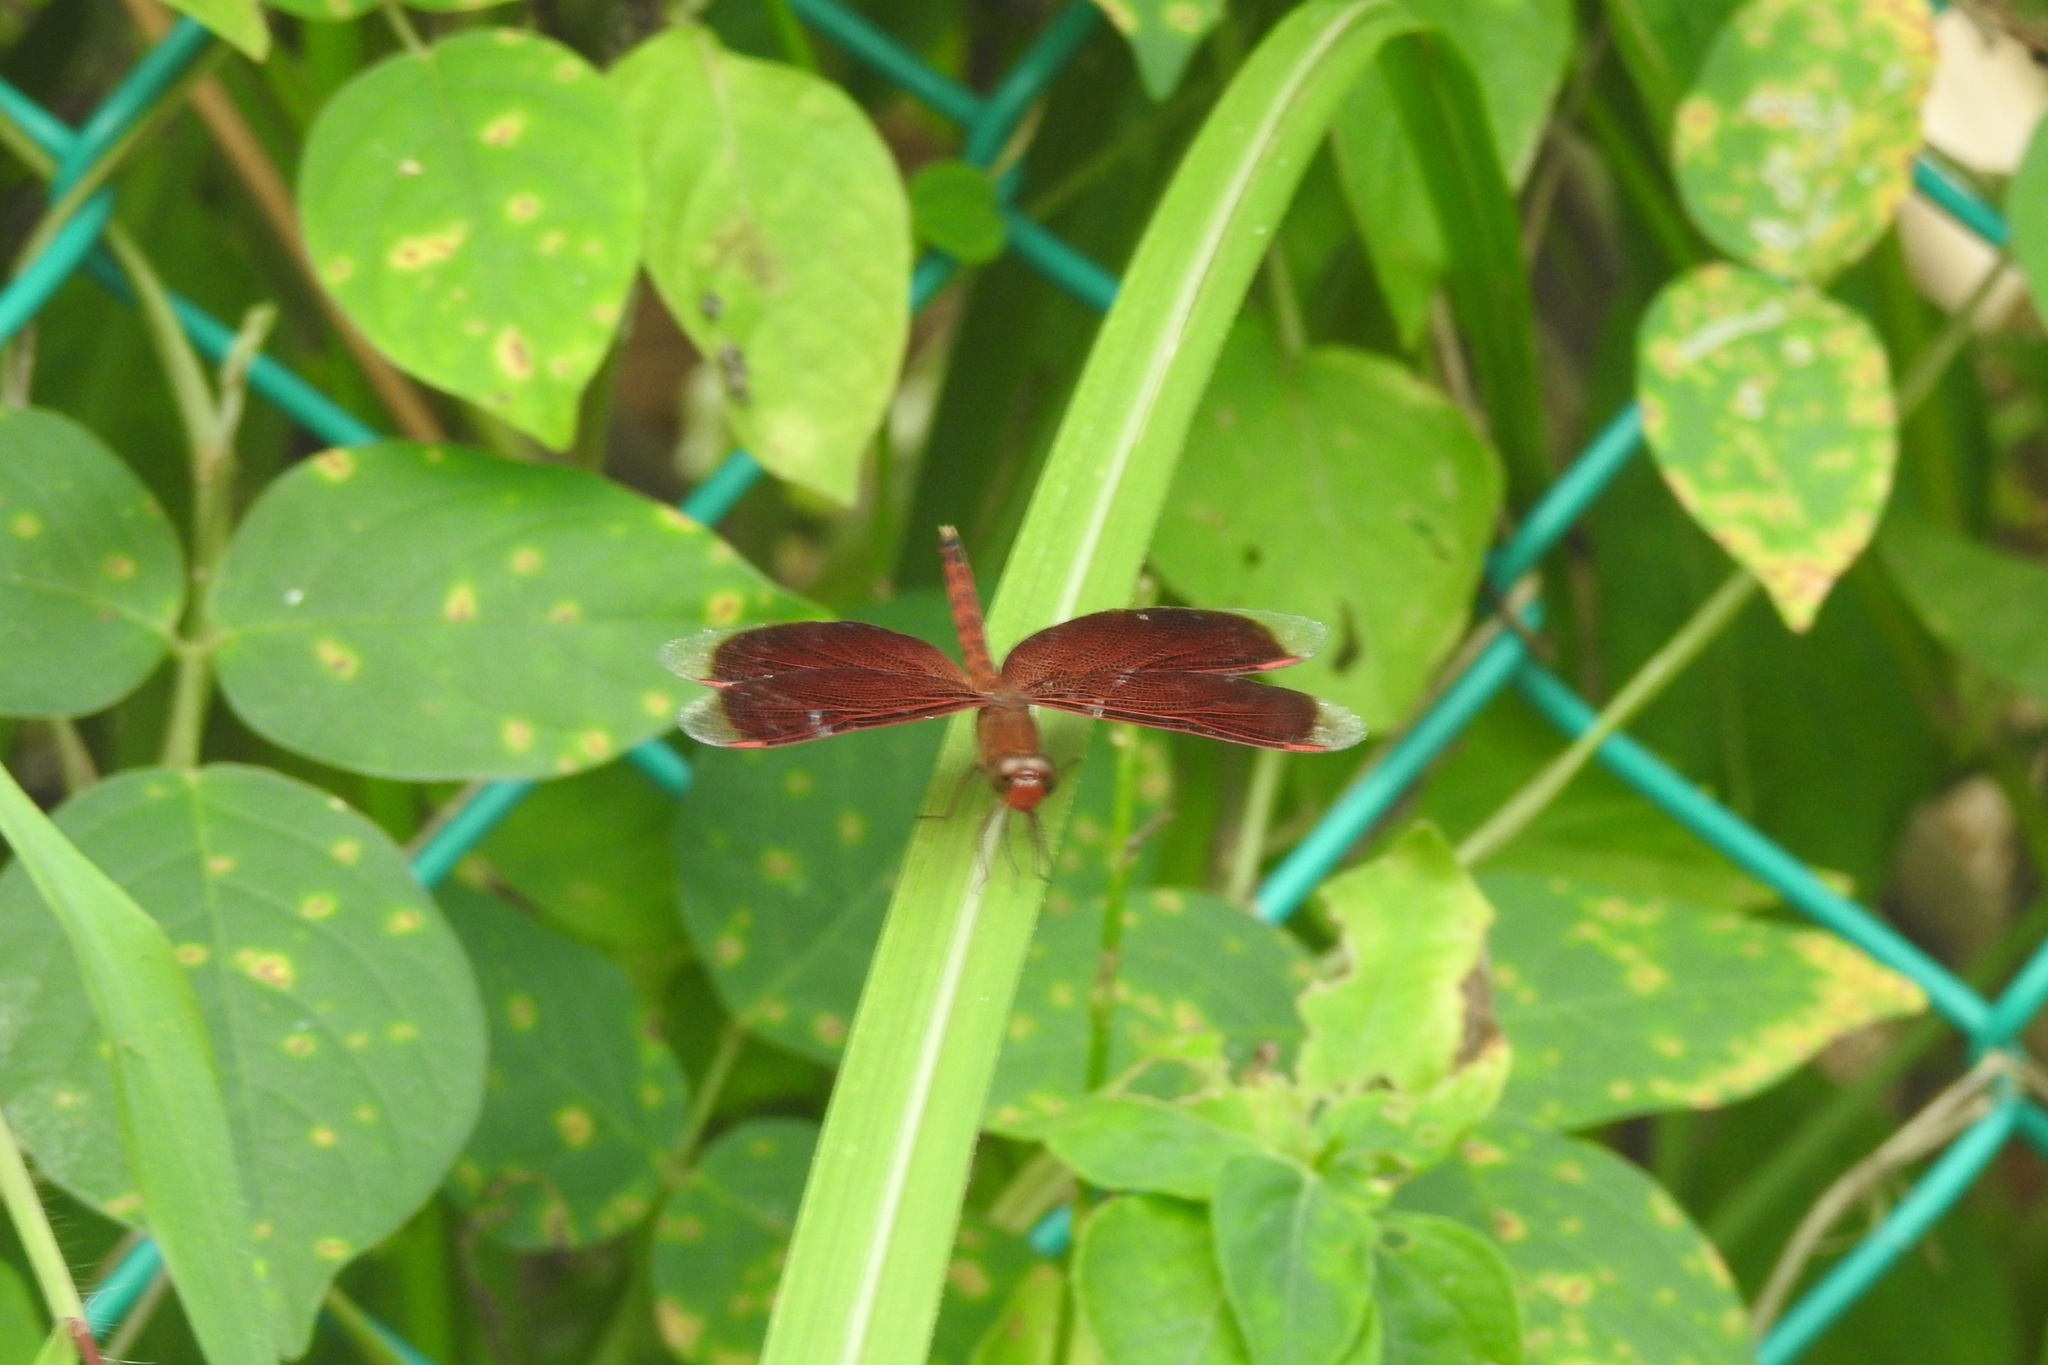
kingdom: Animalia
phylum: Arthropoda
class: Insecta
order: Odonata
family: Libellulidae
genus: Neurothemis
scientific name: Neurothemis fluctuans
